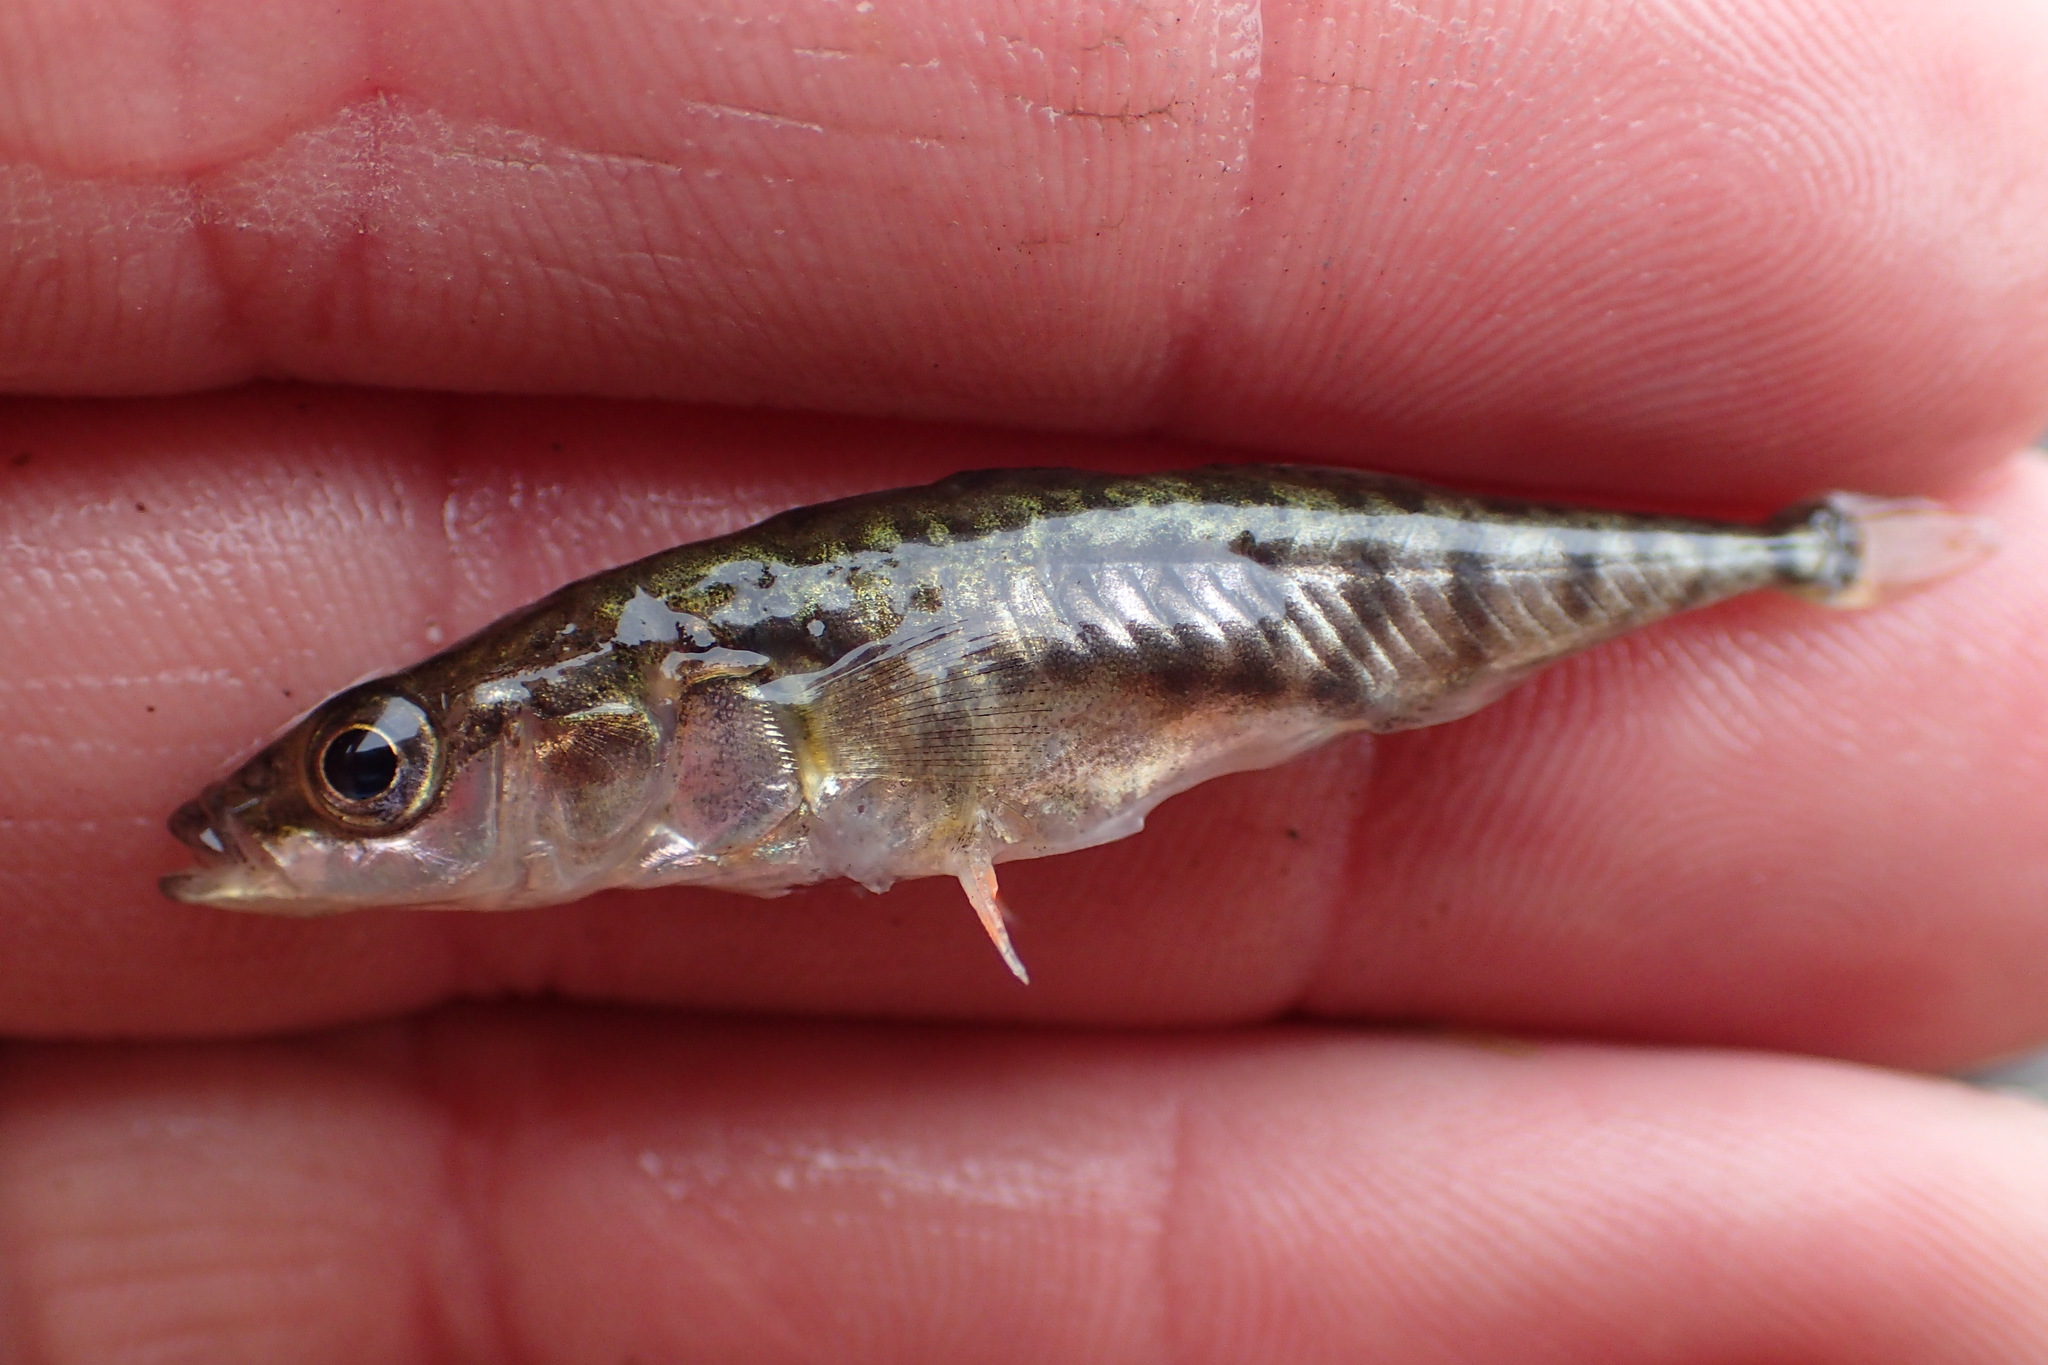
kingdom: Animalia
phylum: Chordata
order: Gasterosteiformes
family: Gasterosteidae
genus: Gasterosteus
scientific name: Gasterosteus aculeatus
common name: Three-spined stickleback
